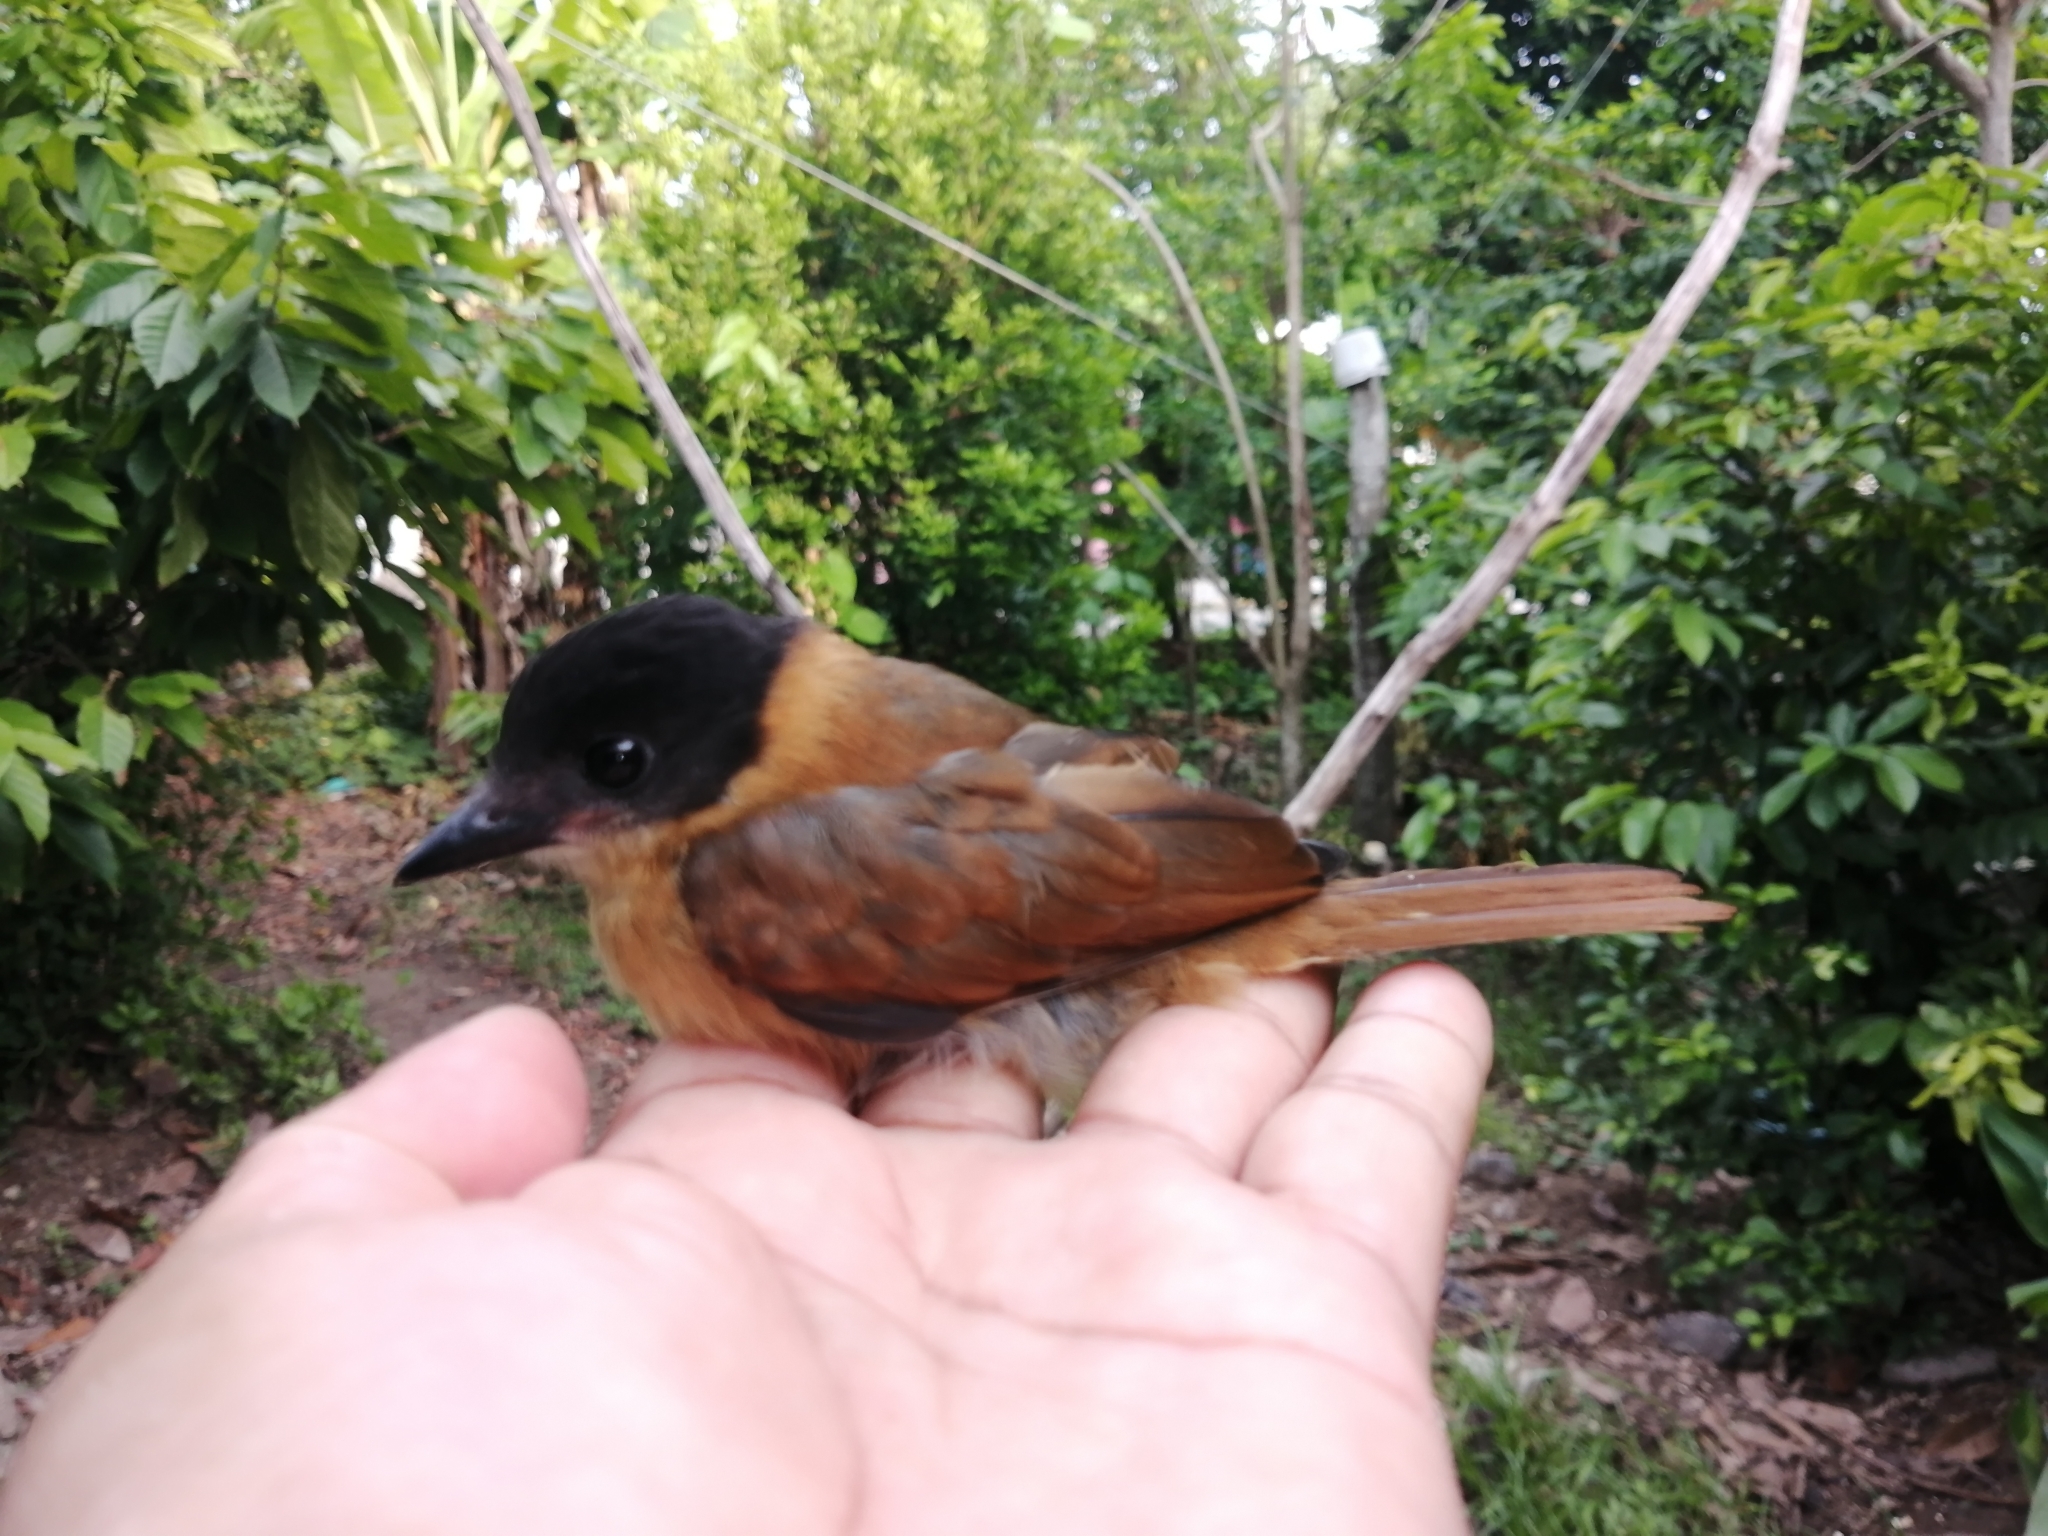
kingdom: Animalia
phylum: Chordata
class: Aves
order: Passeriformes
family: Cotingidae
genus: Pachyramphus
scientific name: Pachyramphus aglaiae
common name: Rose-throated becard
